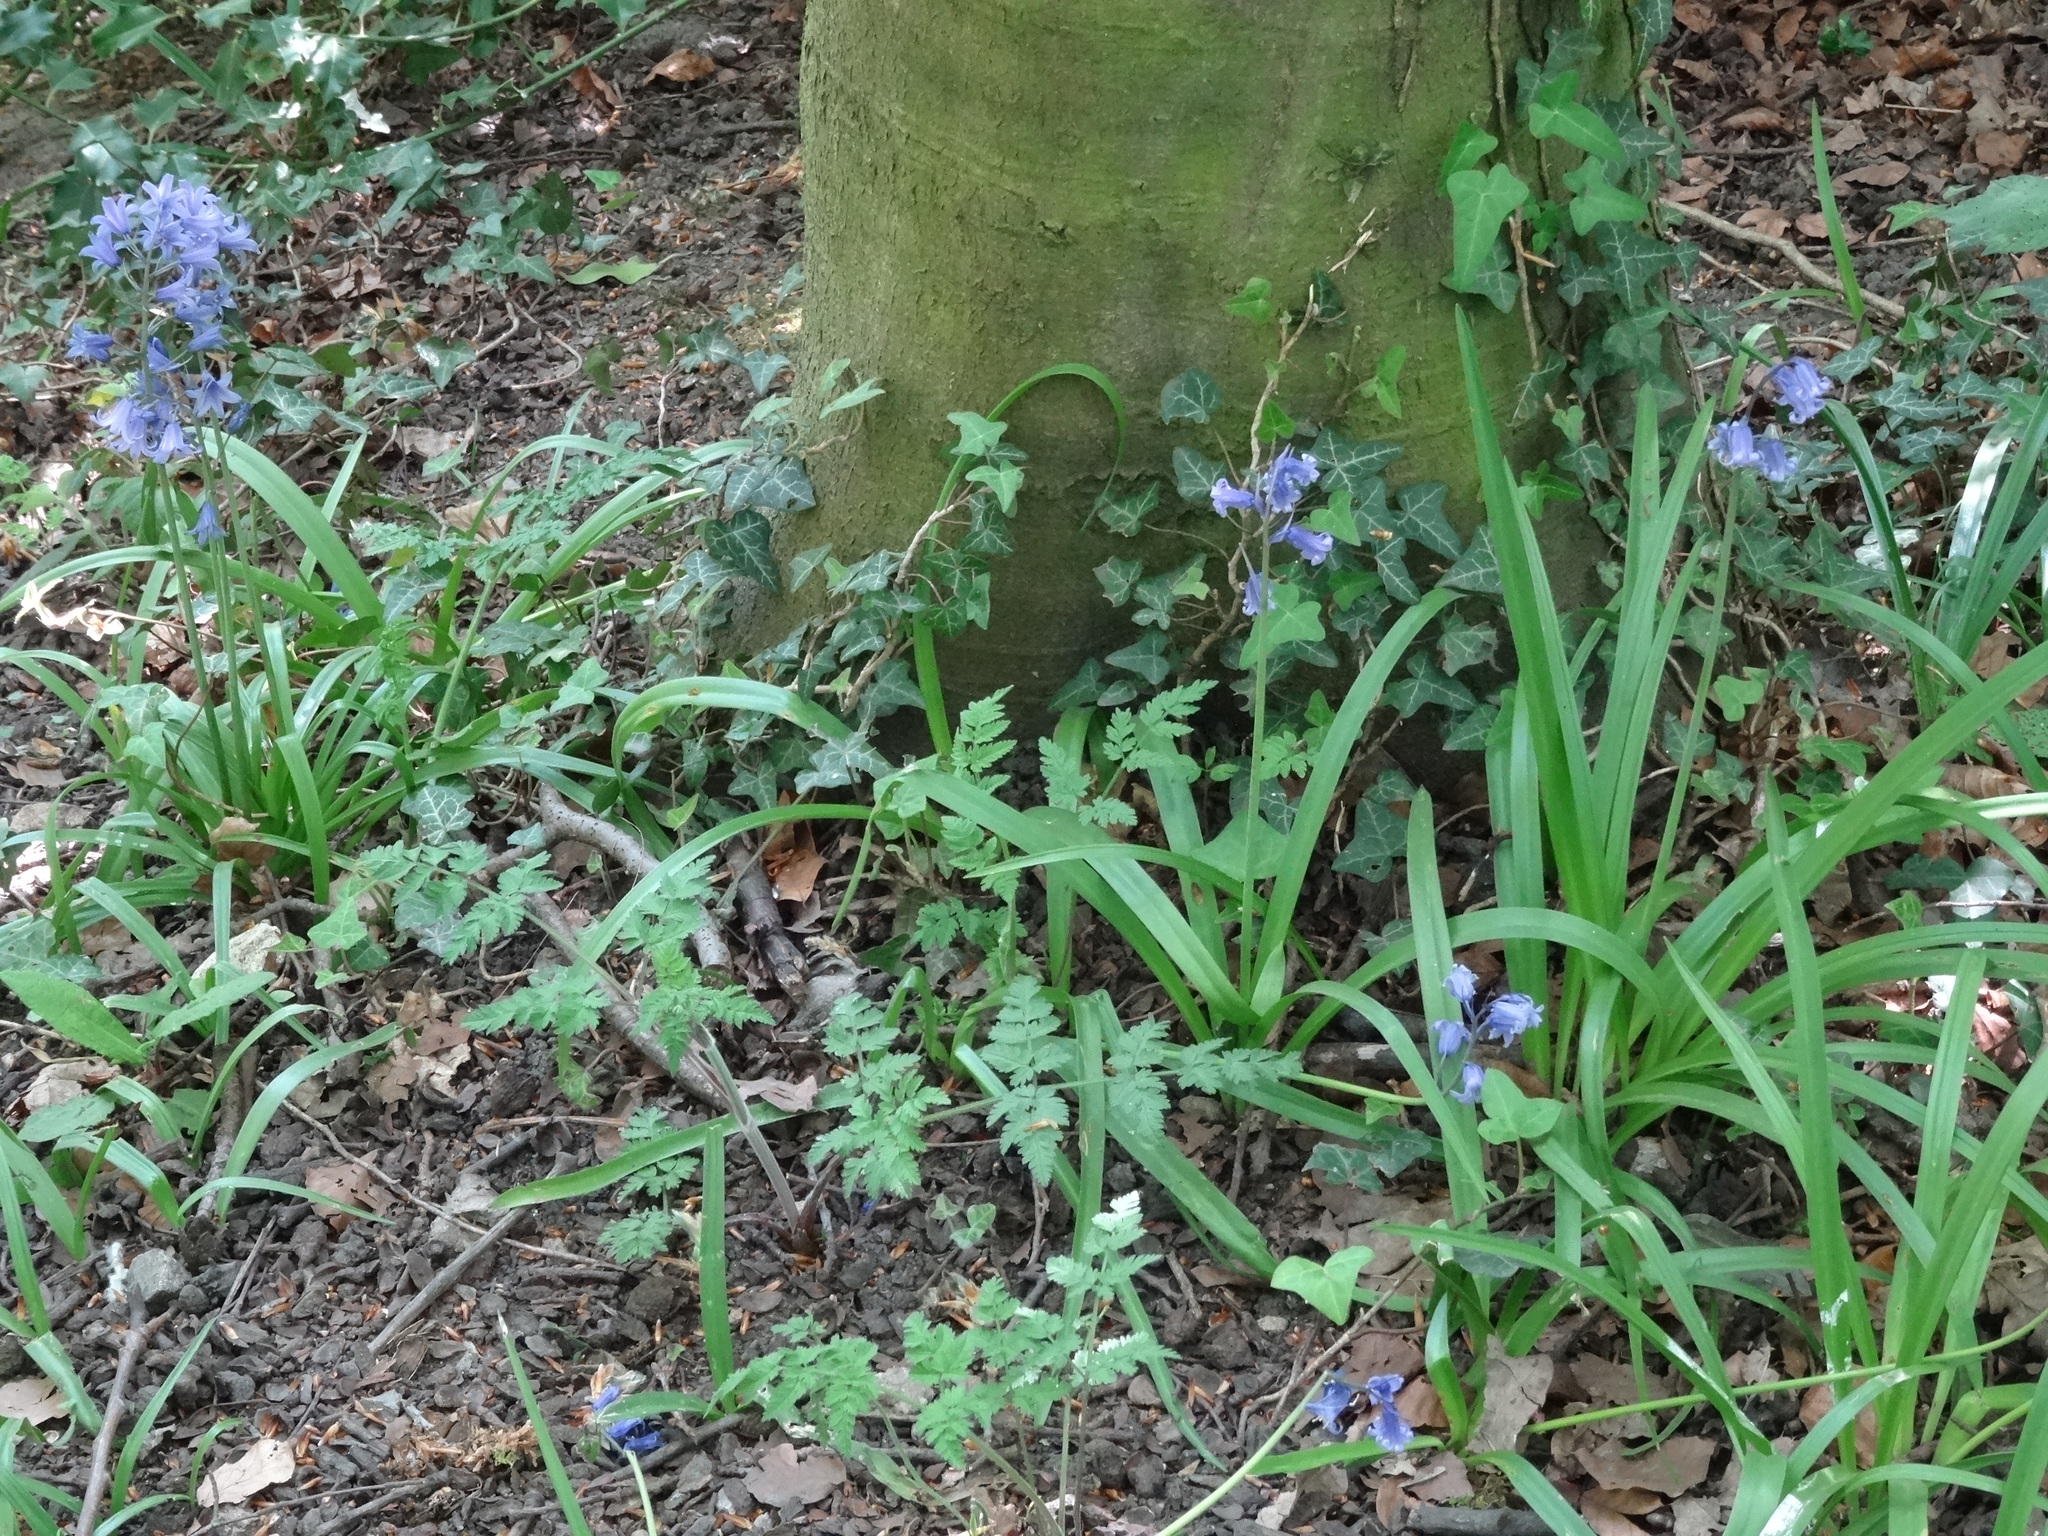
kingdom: Plantae
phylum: Tracheophyta
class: Liliopsida
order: Asparagales
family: Asparagaceae
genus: Hyacinthoides
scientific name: Hyacinthoides hispanica
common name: Spanish bluebell
